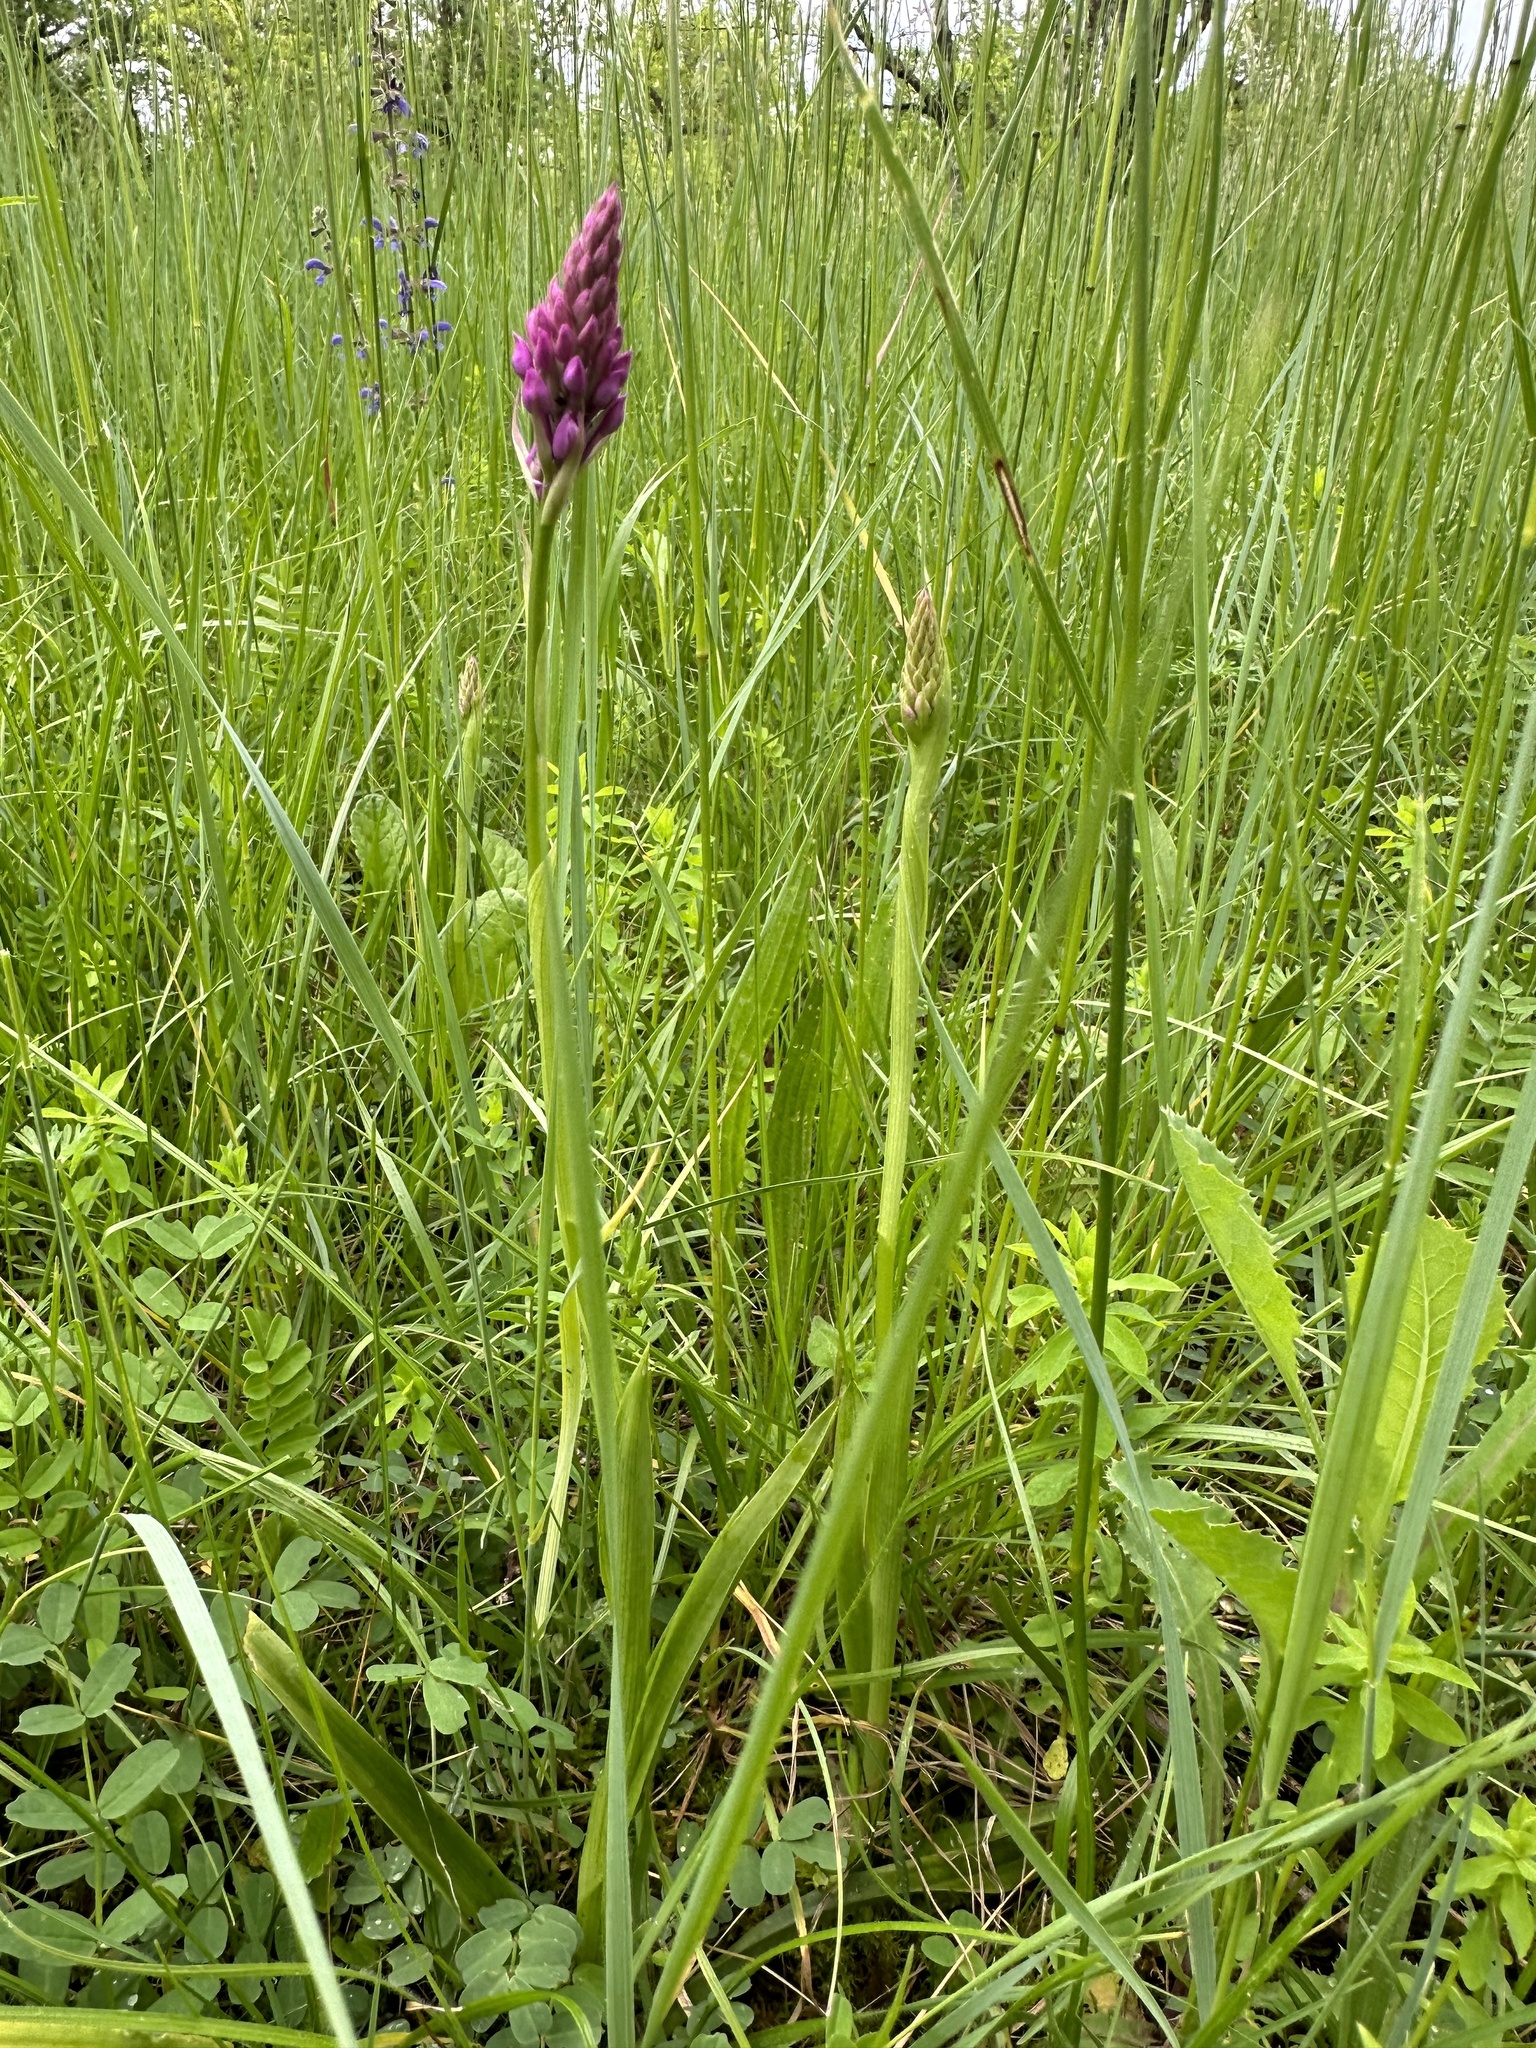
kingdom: Plantae
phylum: Tracheophyta
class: Liliopsida
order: Asparagales
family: Orchidaceae
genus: Anacamptis
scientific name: Anacamptis pyramidalis
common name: Pyramidal orchid
